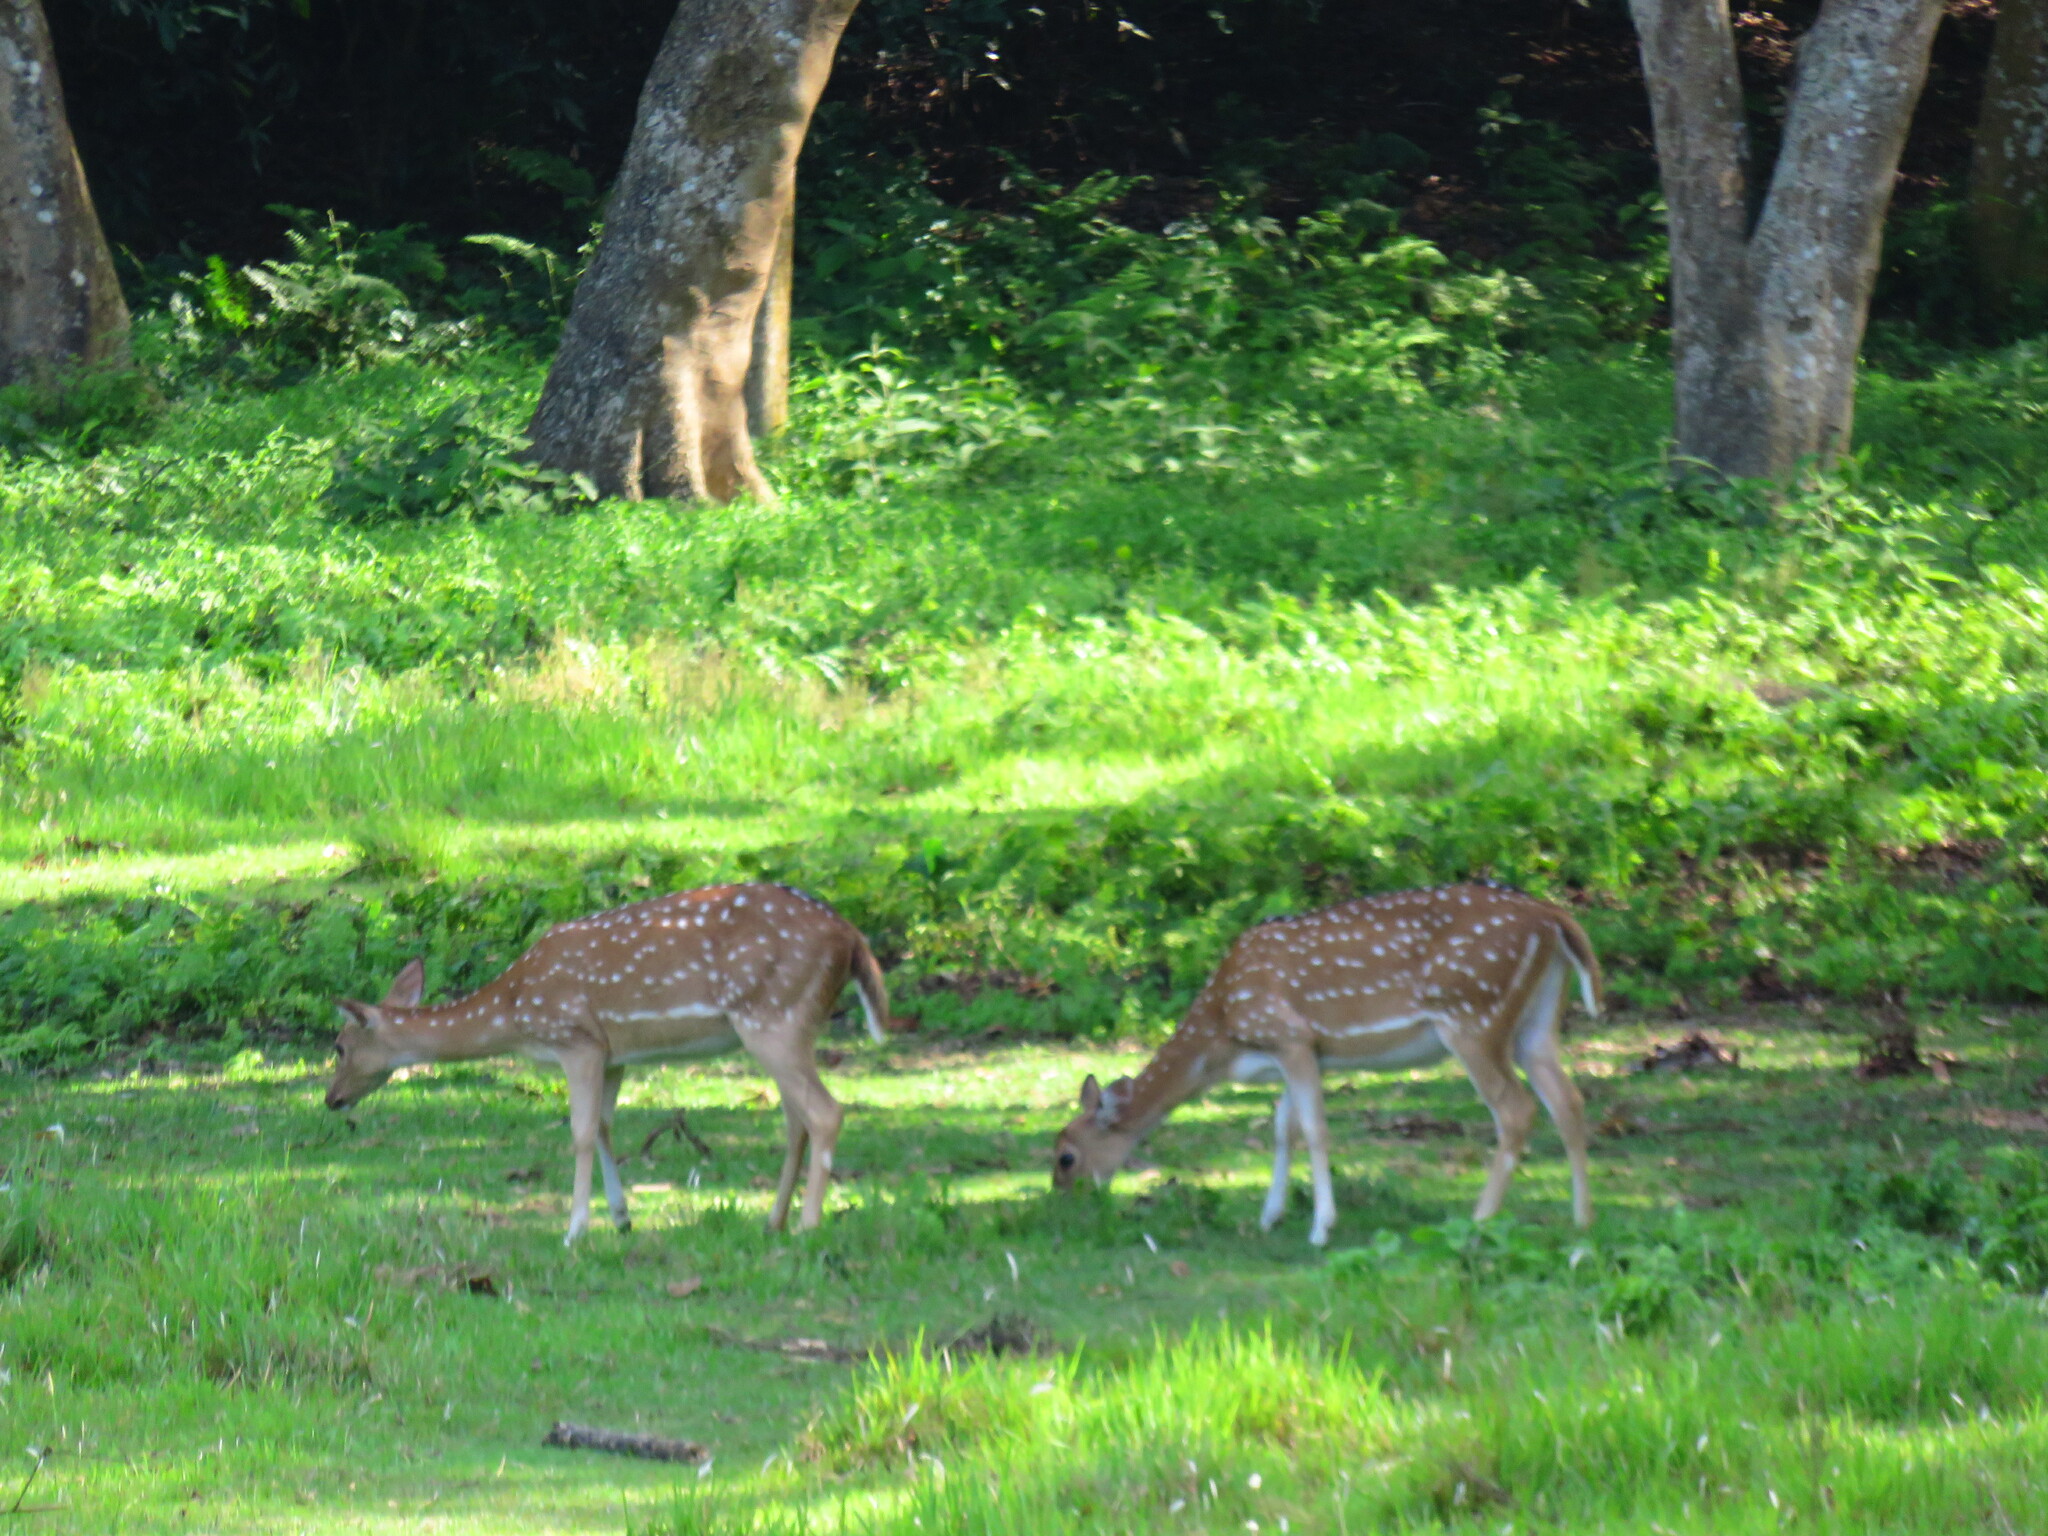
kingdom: Animalia
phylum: Chordata
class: Mammalia
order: Artiodactyla
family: Cervidae
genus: Axis
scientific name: Axis axis
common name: Chital
